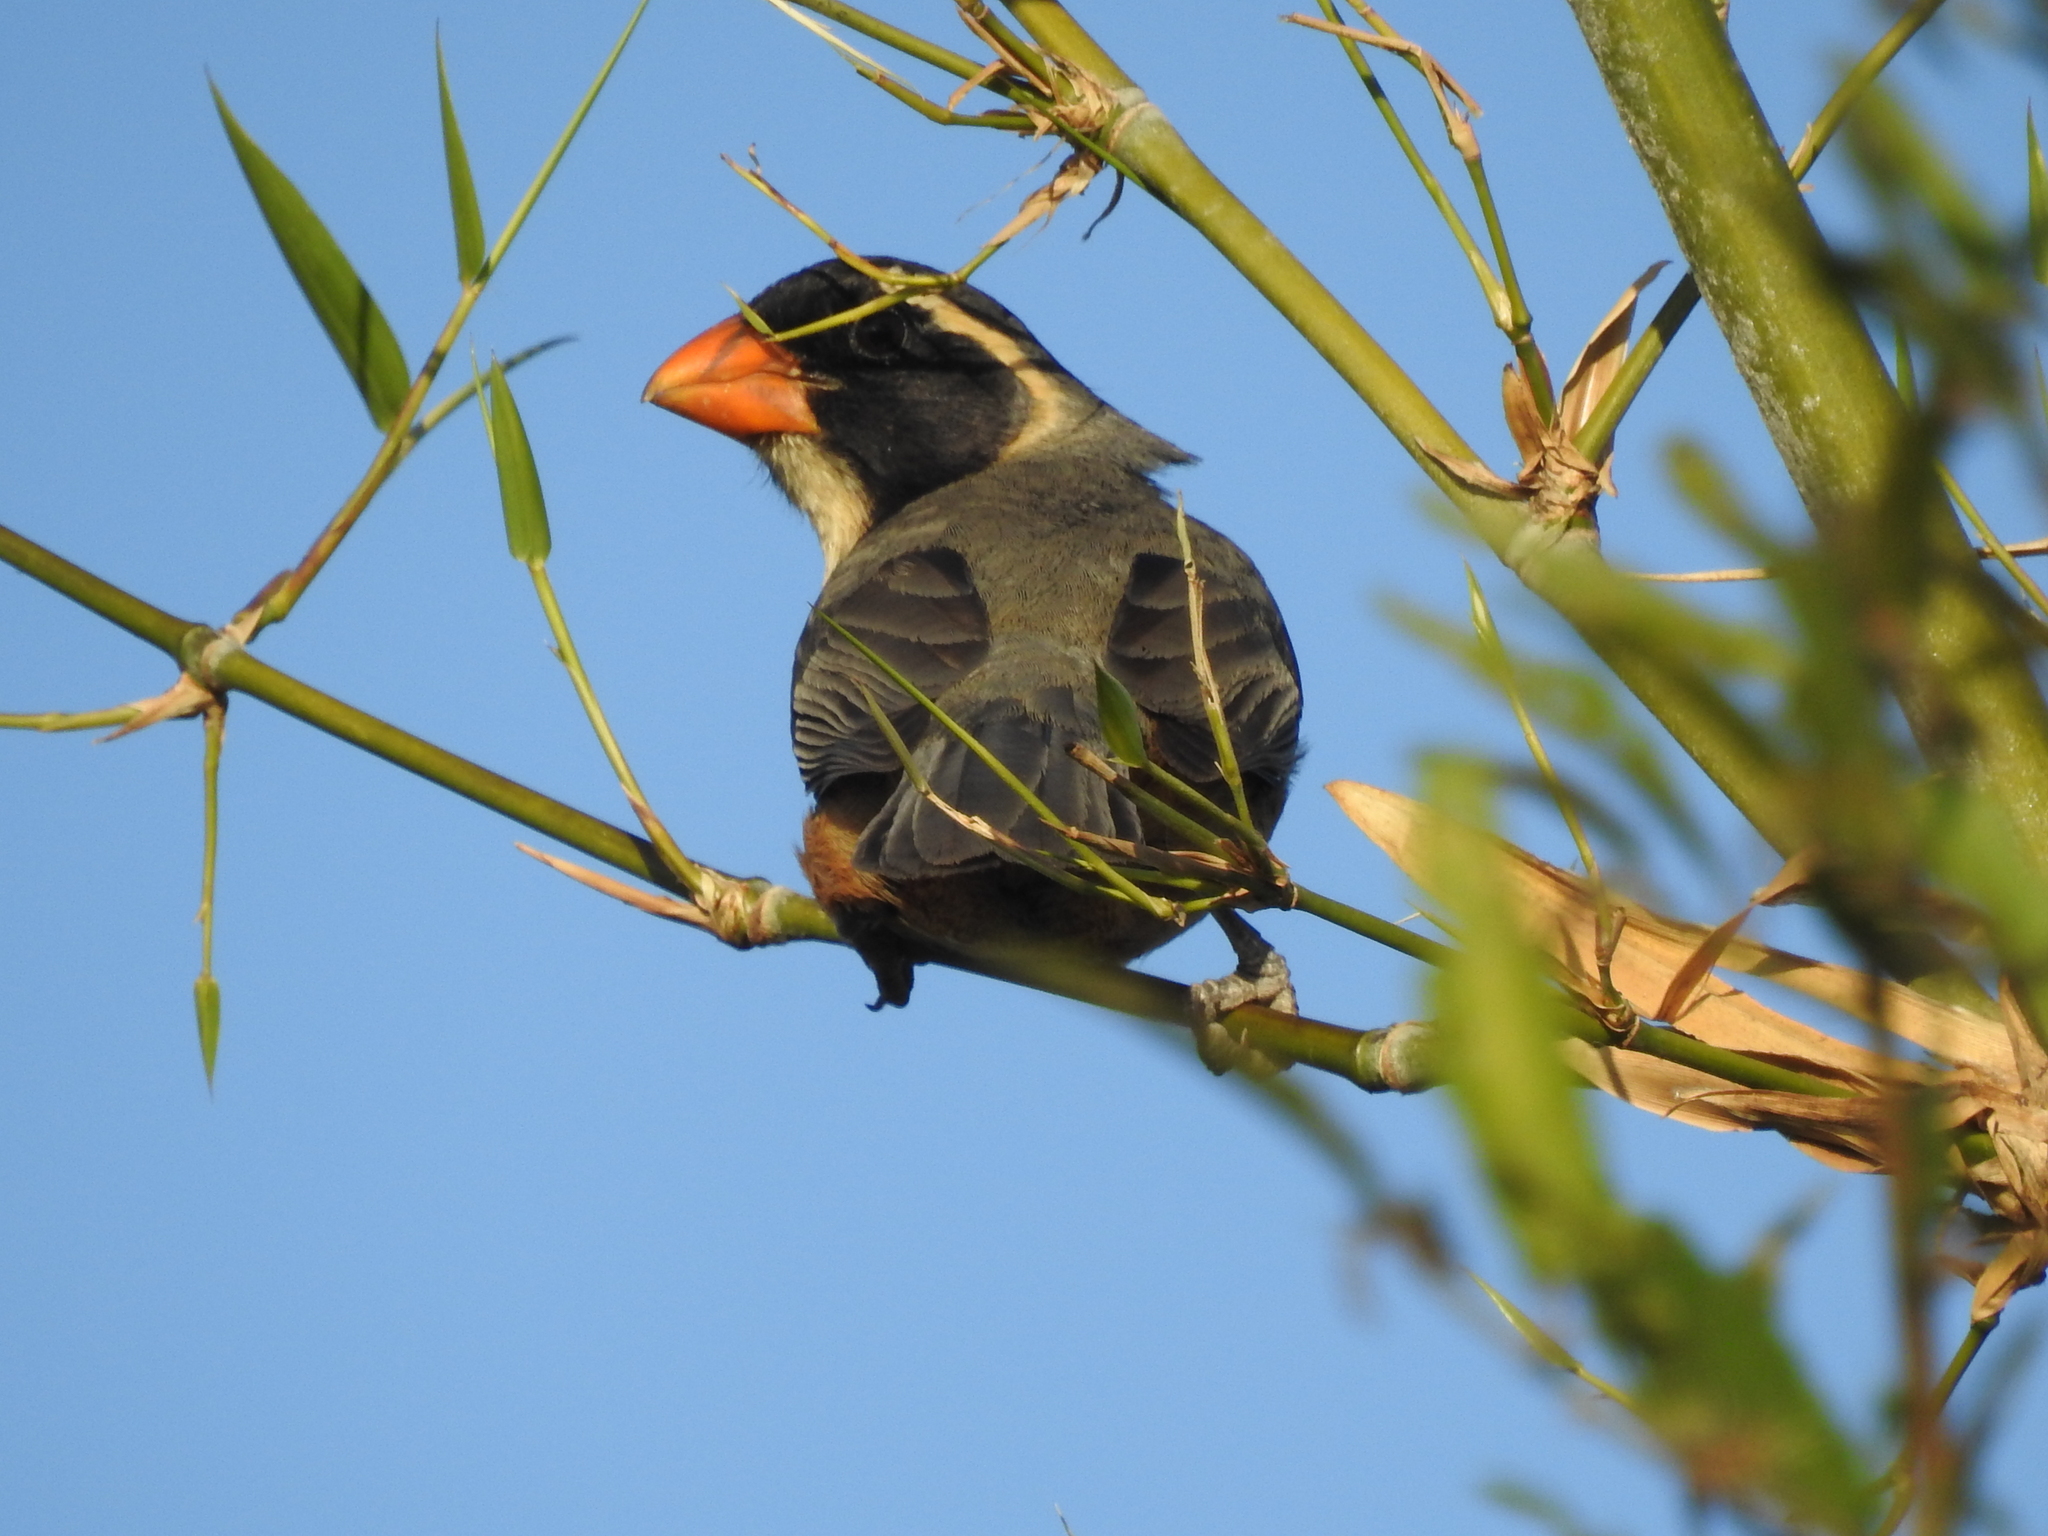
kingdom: Animalia
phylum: Chordata
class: Aves
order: Passeriformes
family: Thraupidae
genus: Saltator
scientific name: Saltator aurantiirostris
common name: Golden-billed saltator
